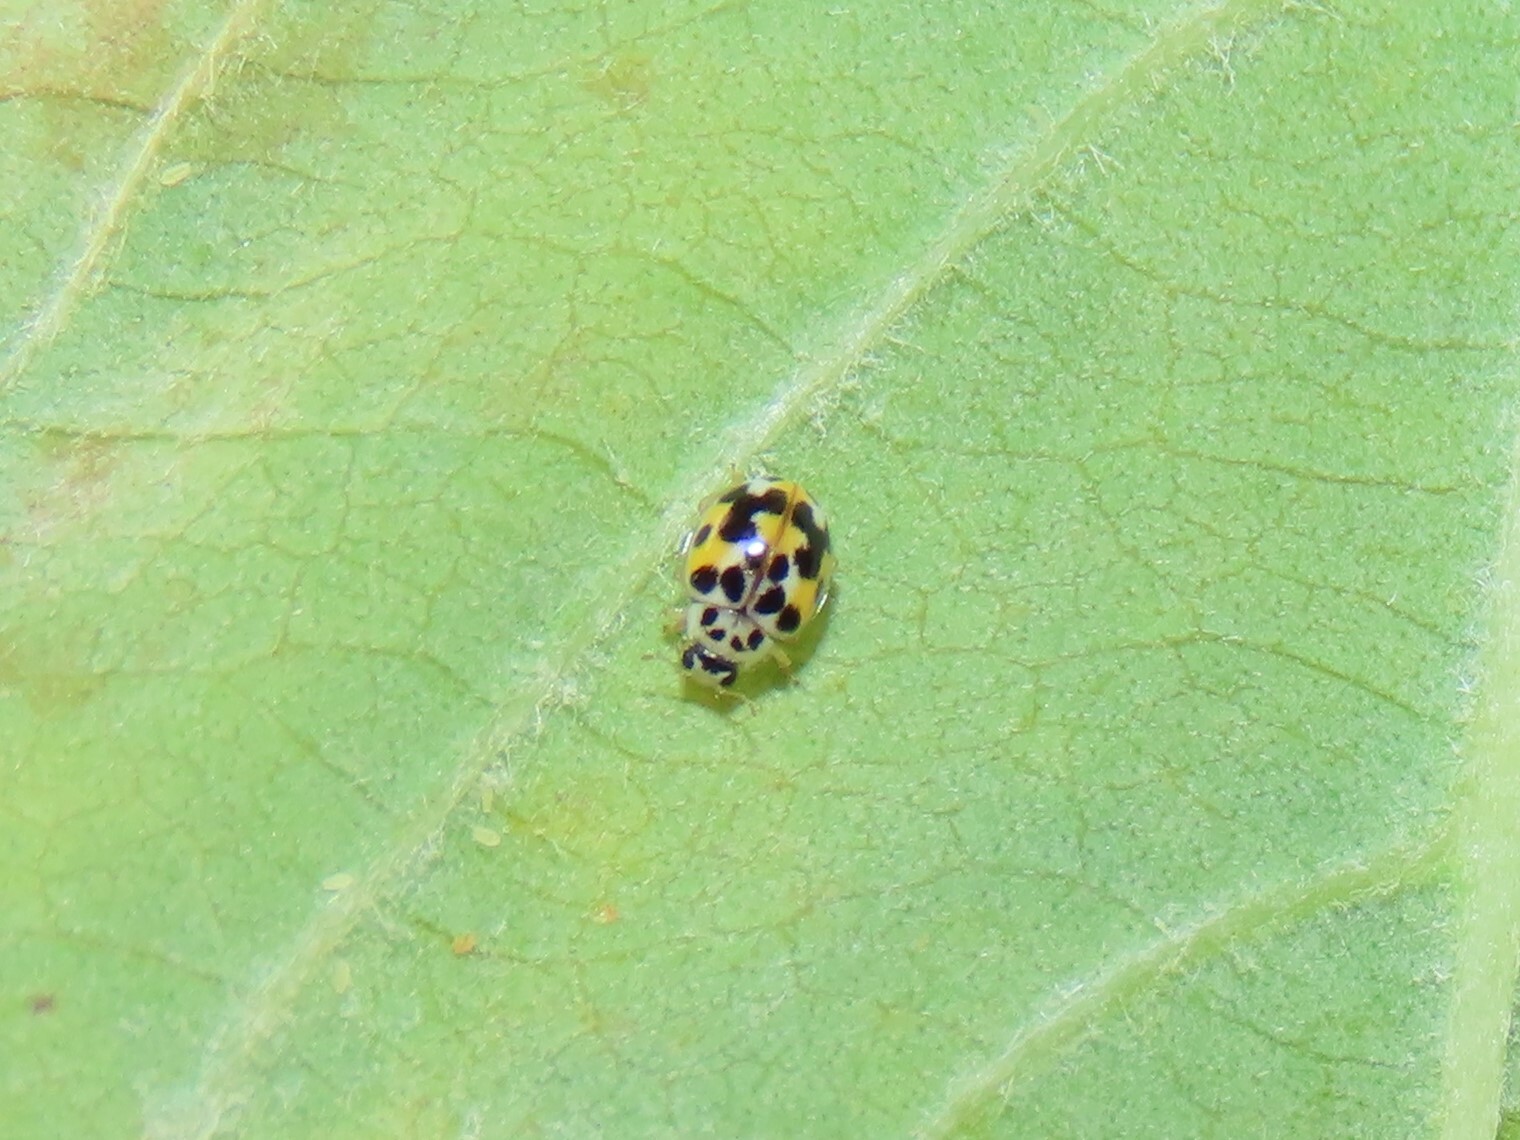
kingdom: Animalia
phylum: Arthropoda
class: Insecta
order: Coleoptera
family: Coccinellidae
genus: Psyllobora
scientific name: Psyllobora vigintimaculata
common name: Ladybird beetle
